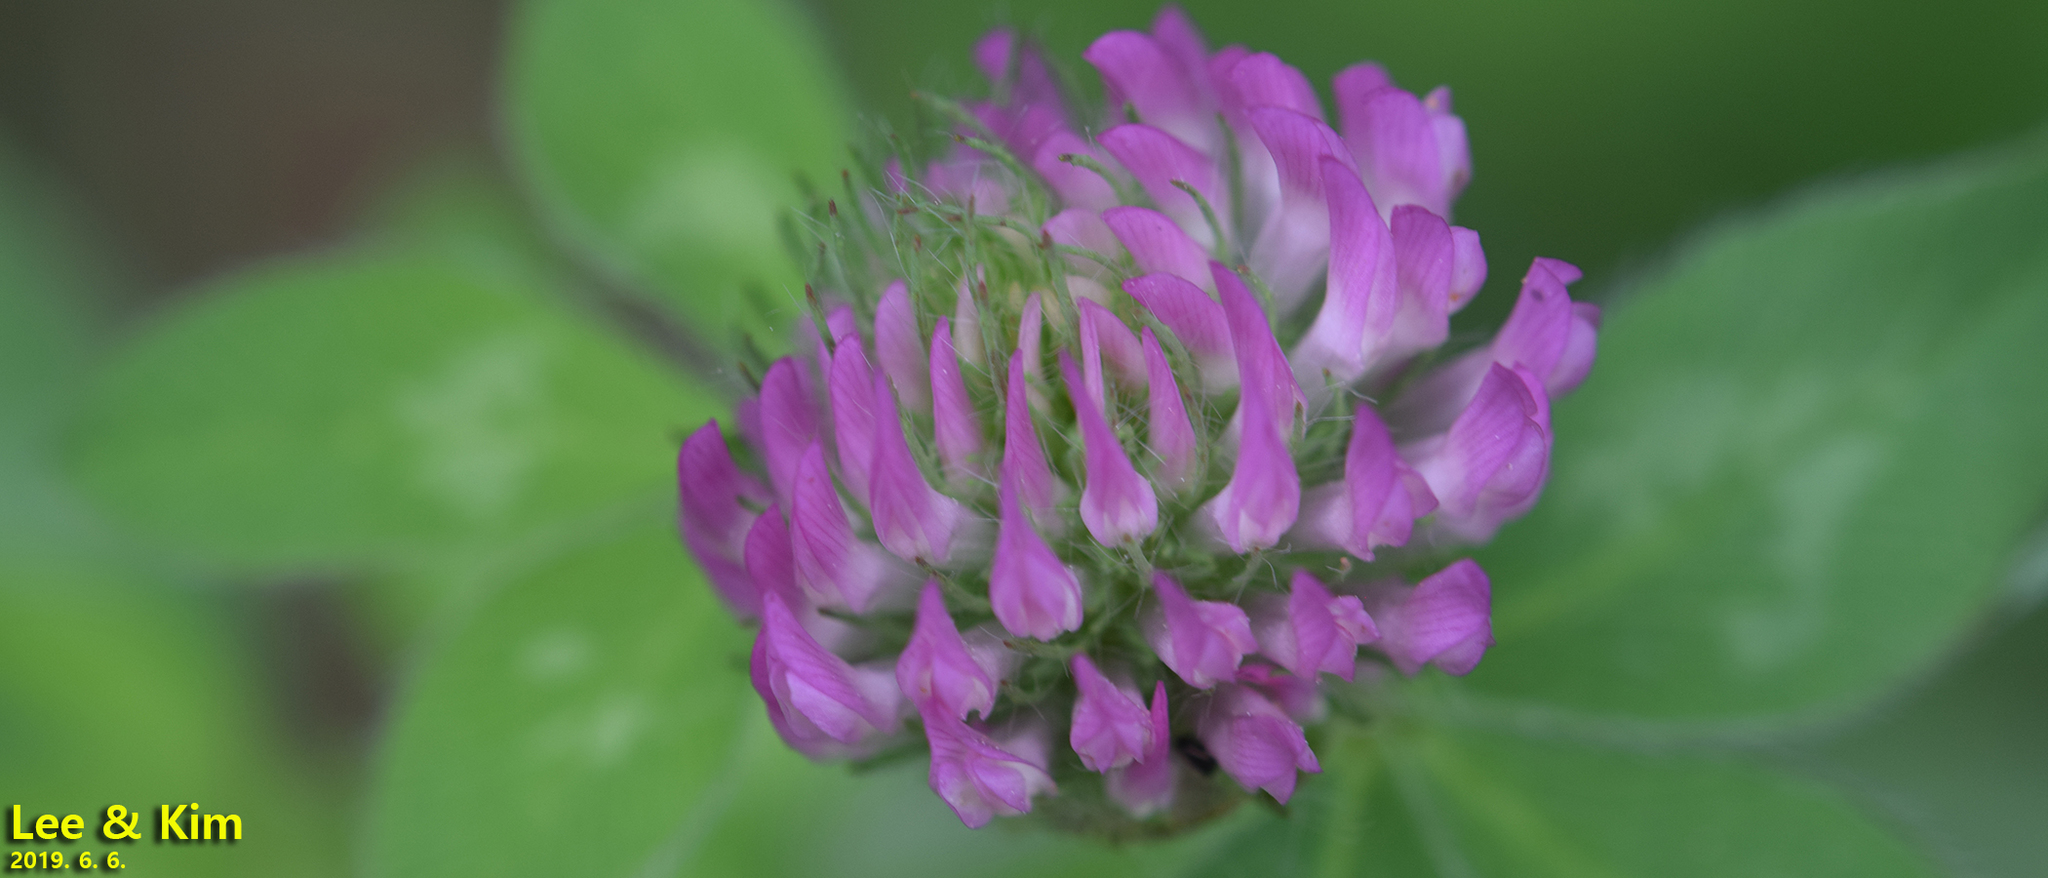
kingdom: Plantae
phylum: Tracheophyta
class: Magnoliopsida
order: Fabales
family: Fabaceae
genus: Trifolium
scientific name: Trifolium pratense
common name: Red clover
